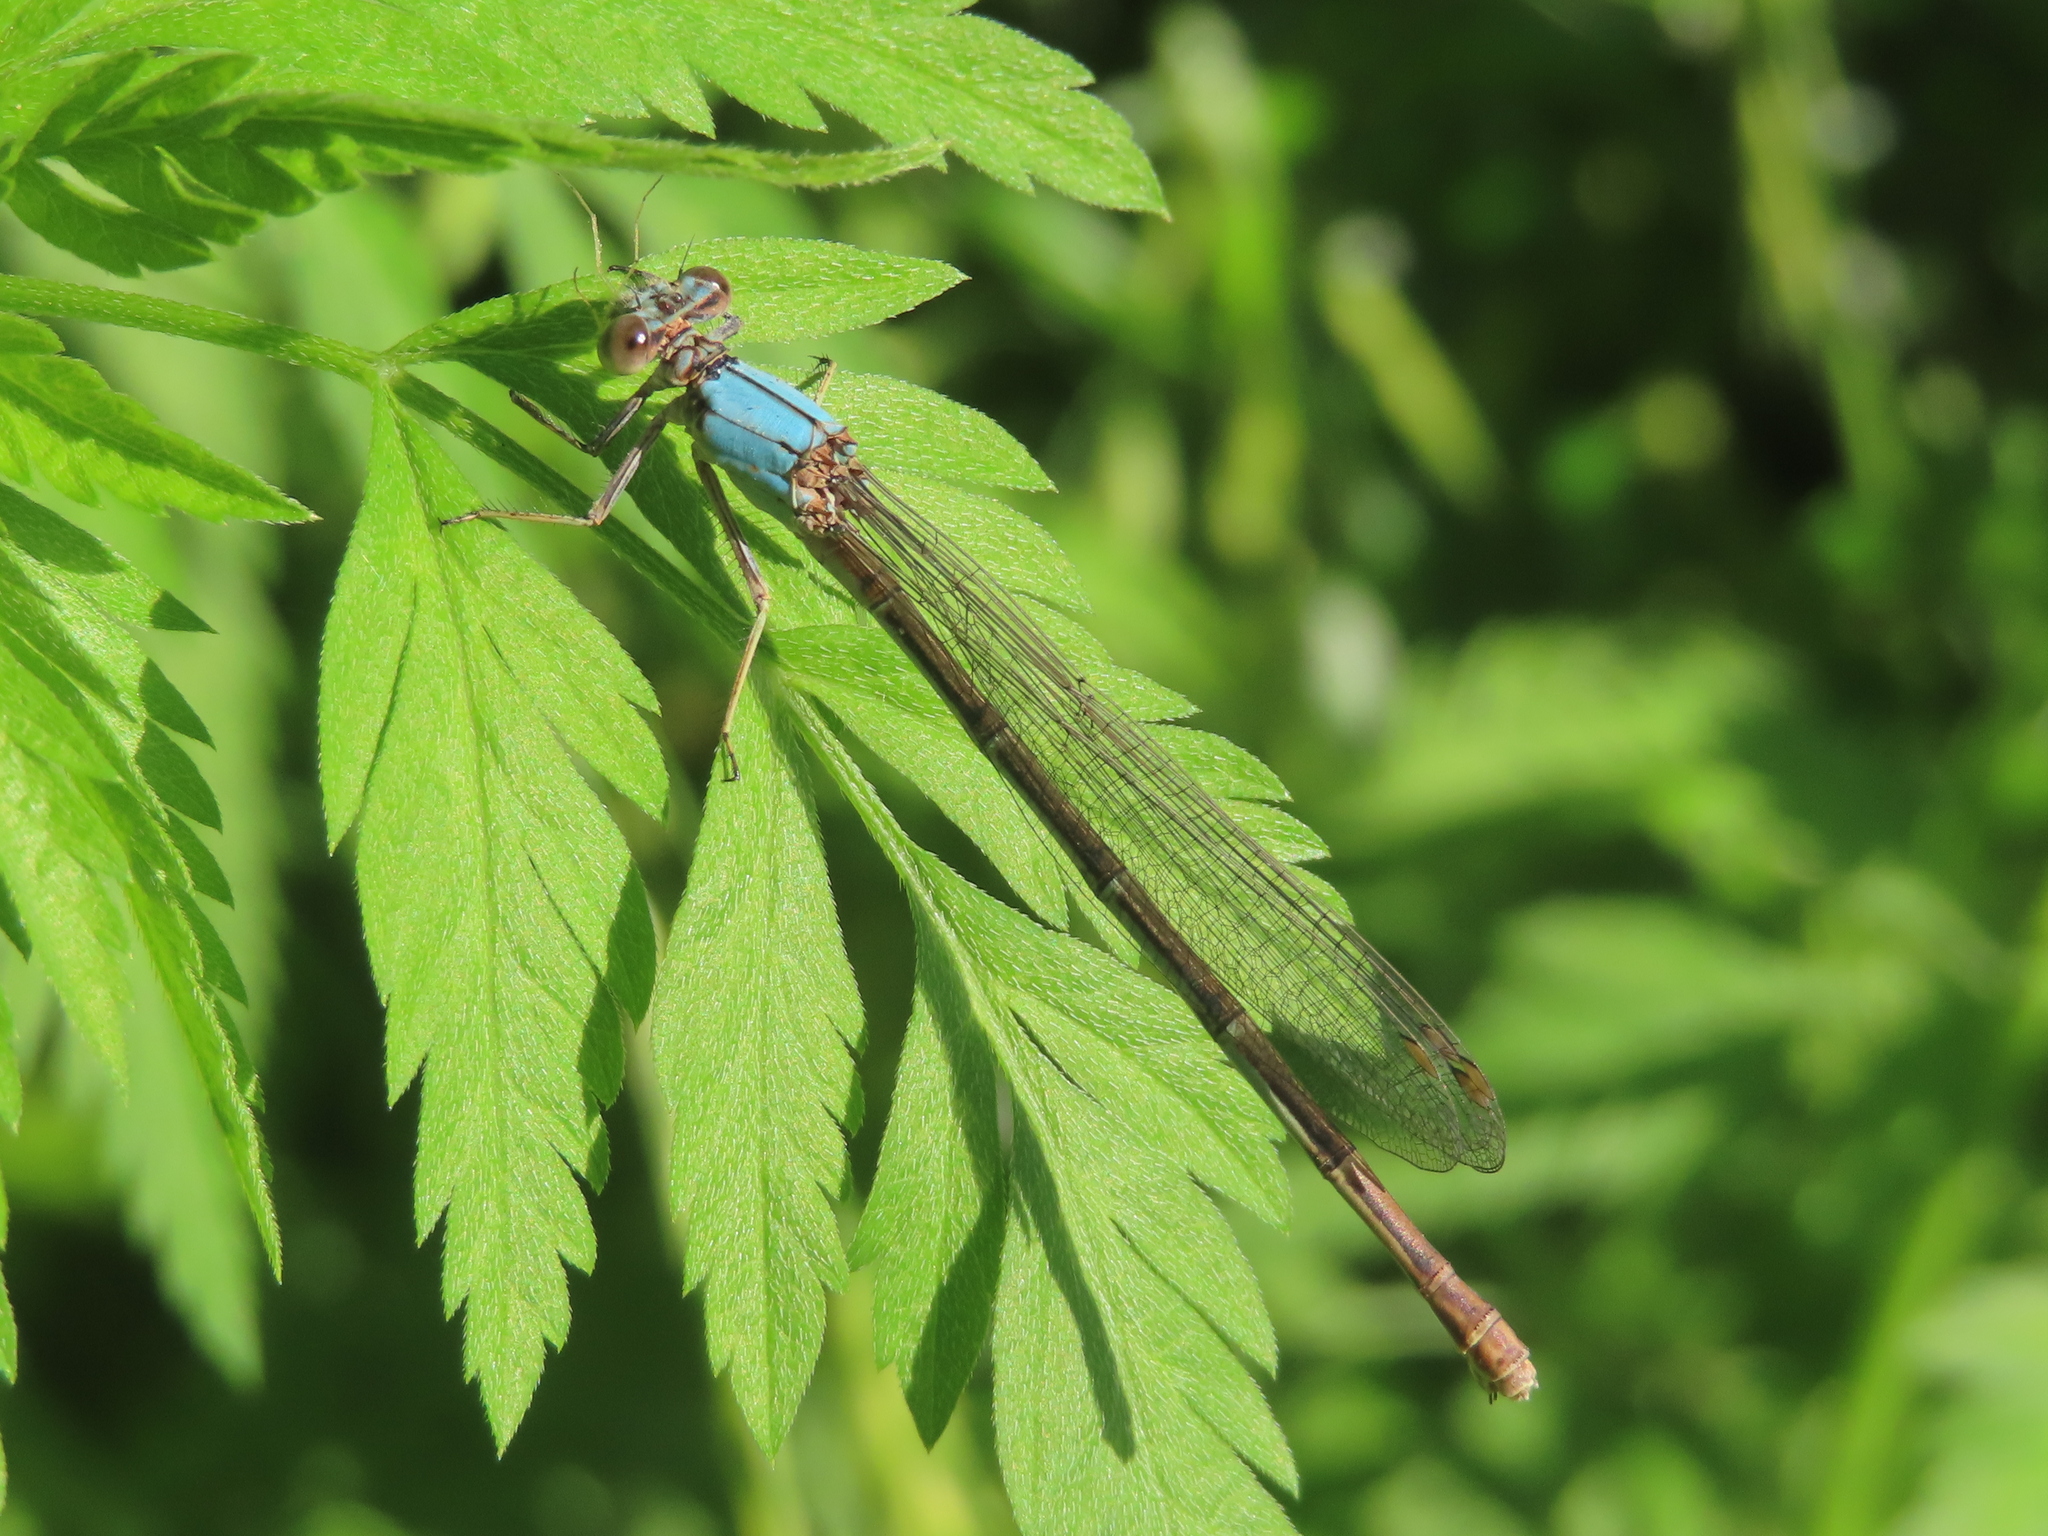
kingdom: Animalia
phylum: Arthropoda
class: Insecta
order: Odonata
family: Coenagrionidae
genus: Argia
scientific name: Argia moesta
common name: Powdered dancer
